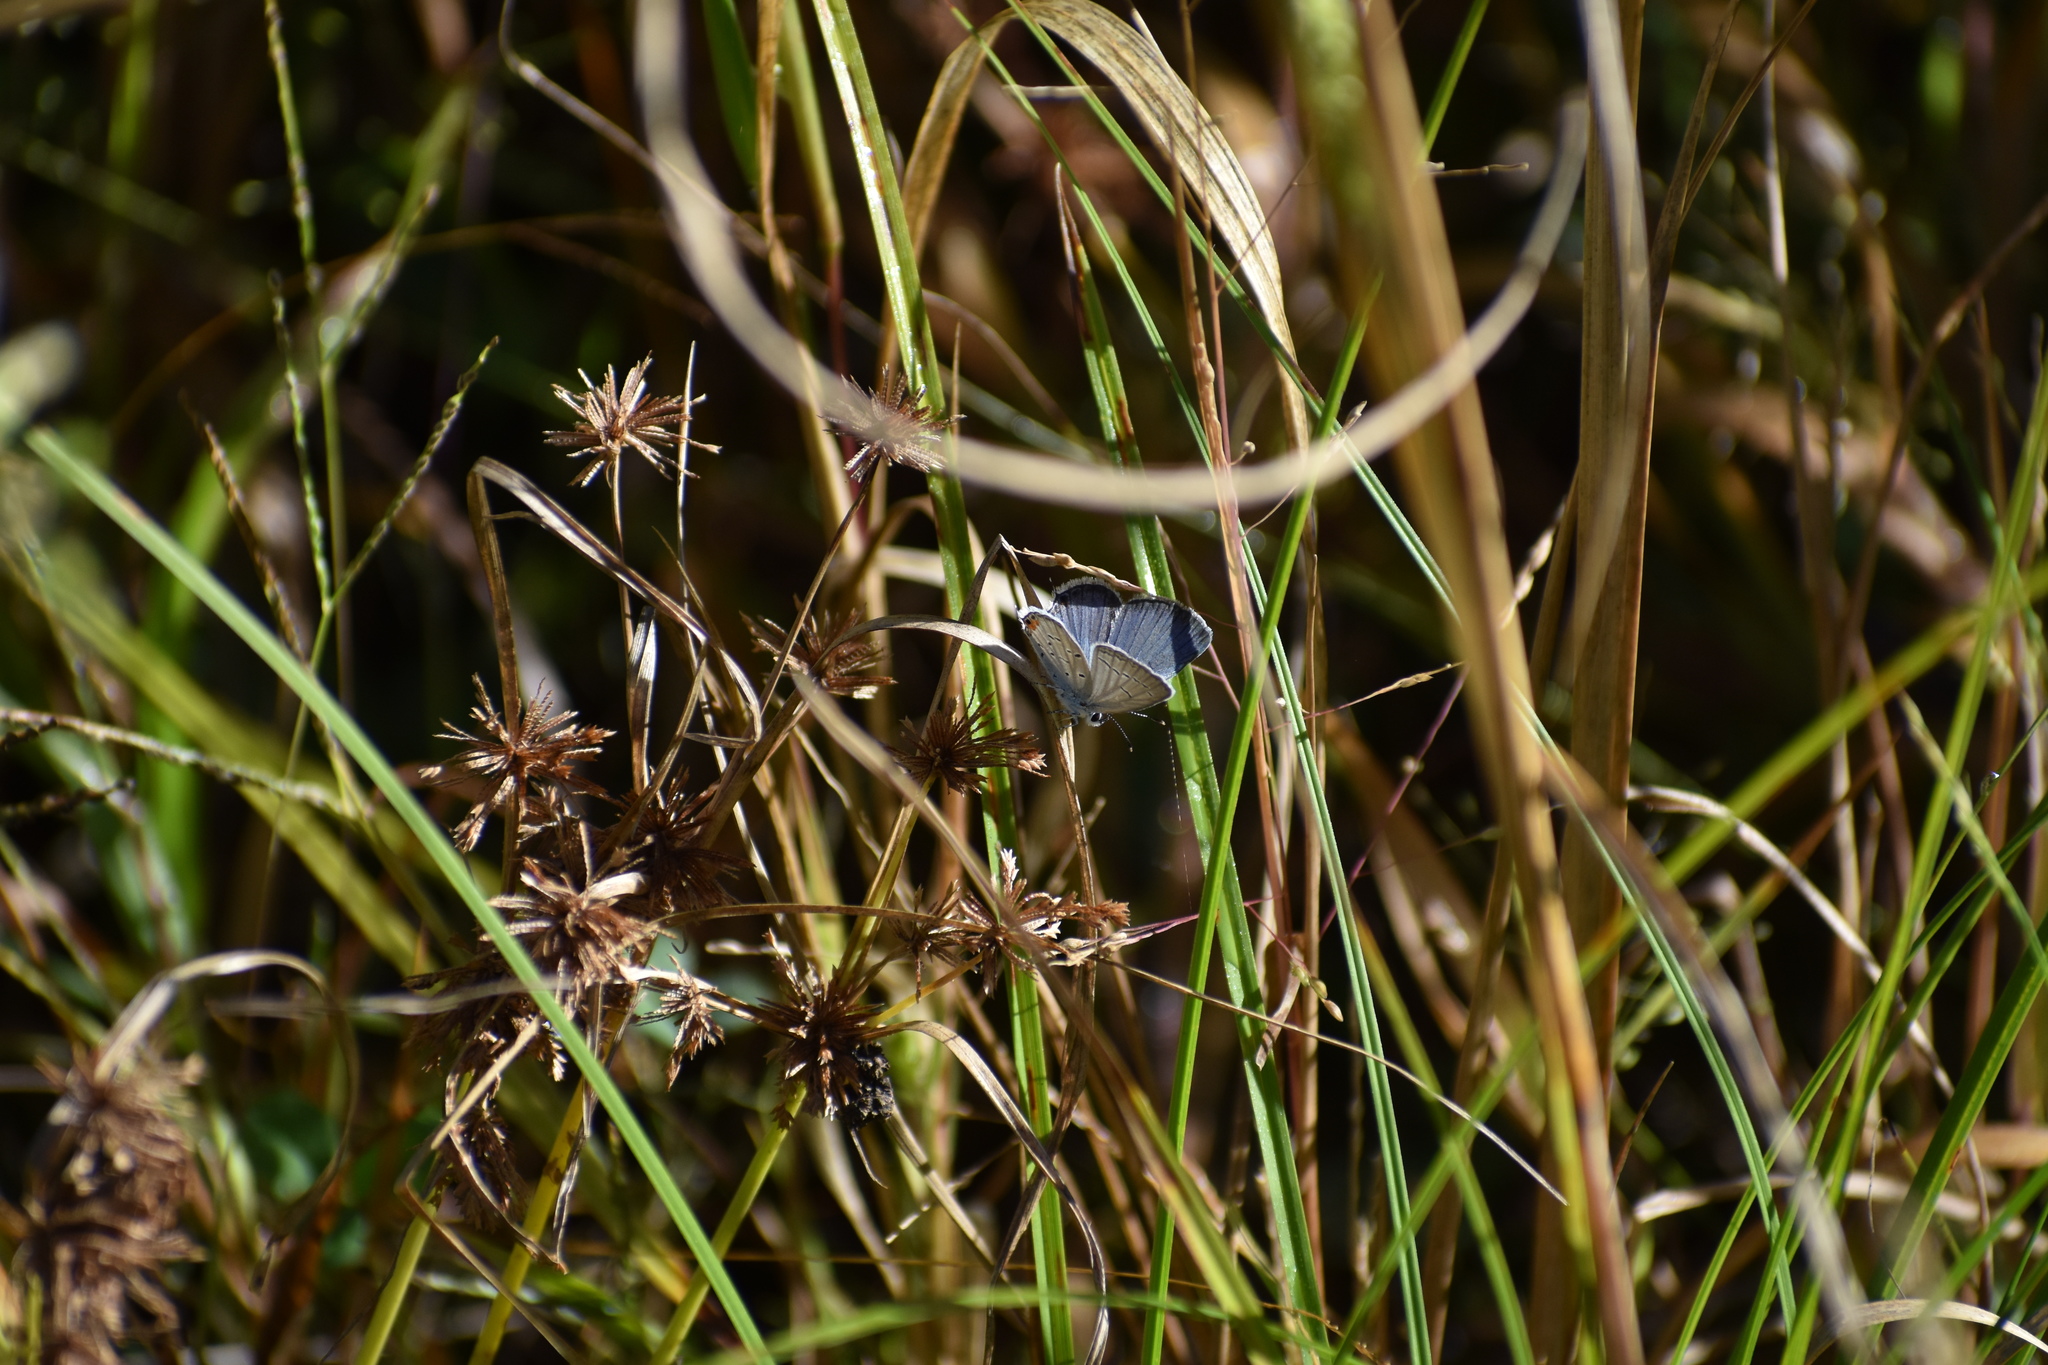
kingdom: Animalia
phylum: Arthropoda
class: Insecta
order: Lepidoptera
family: Lycaenidae
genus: Elkalyce
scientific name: Elkalyce comyntas
